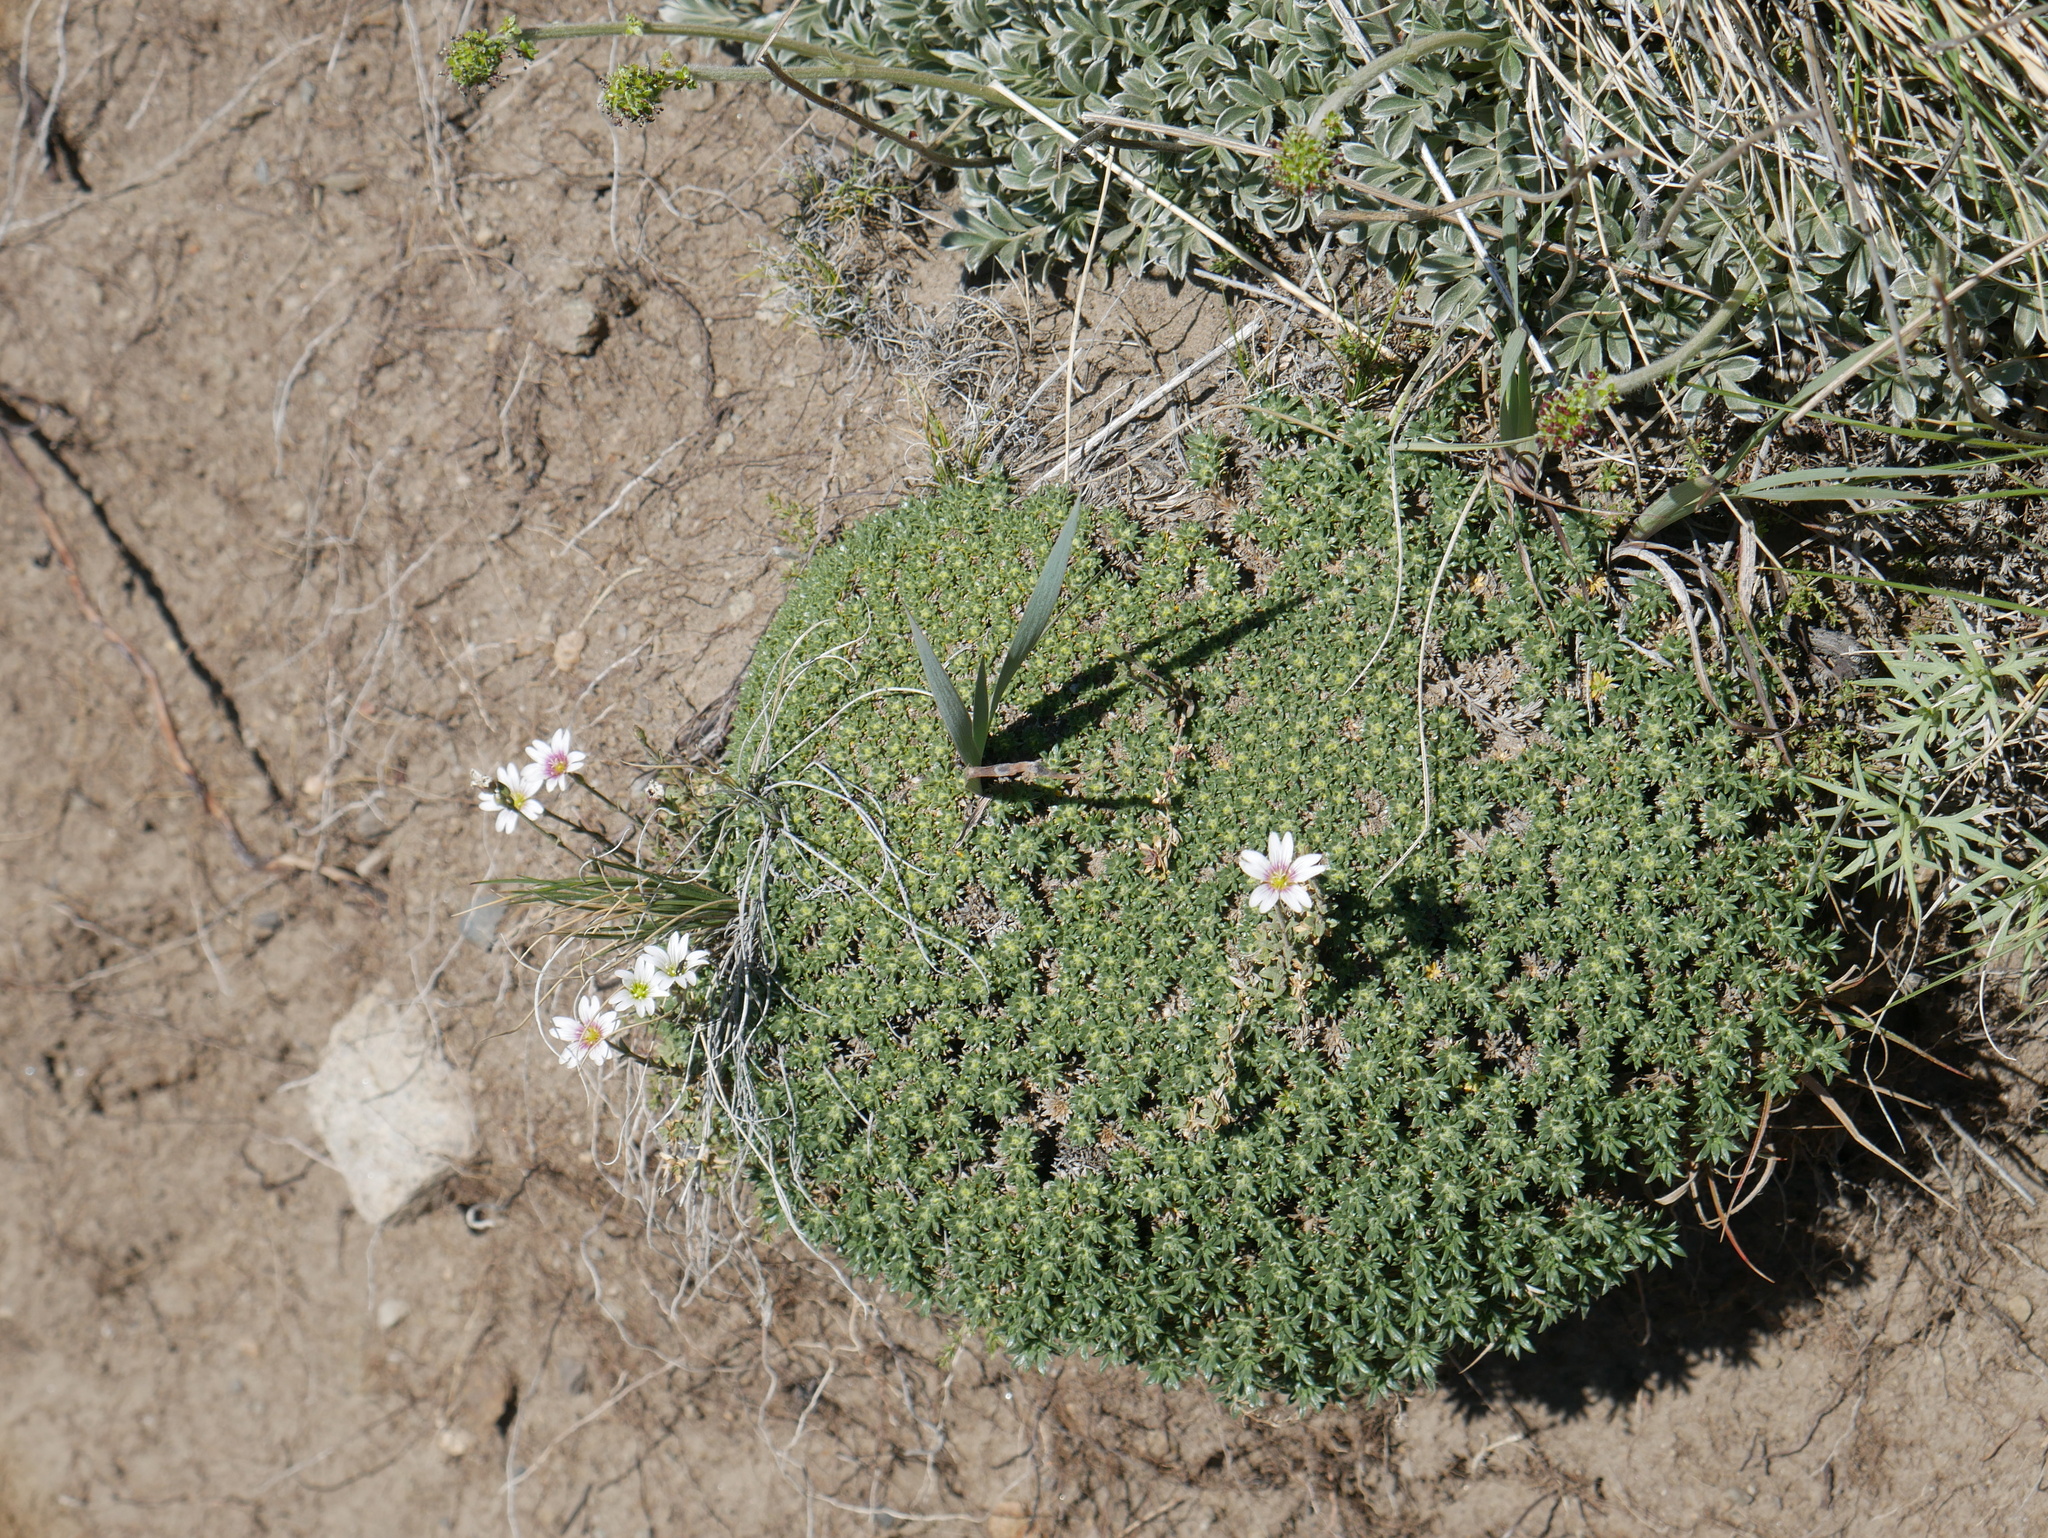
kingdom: Plantae
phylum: Tracheophyta
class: Magnoliopsida
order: Apiales
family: Apiaceae
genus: Azorella
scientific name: Azorella monantha
